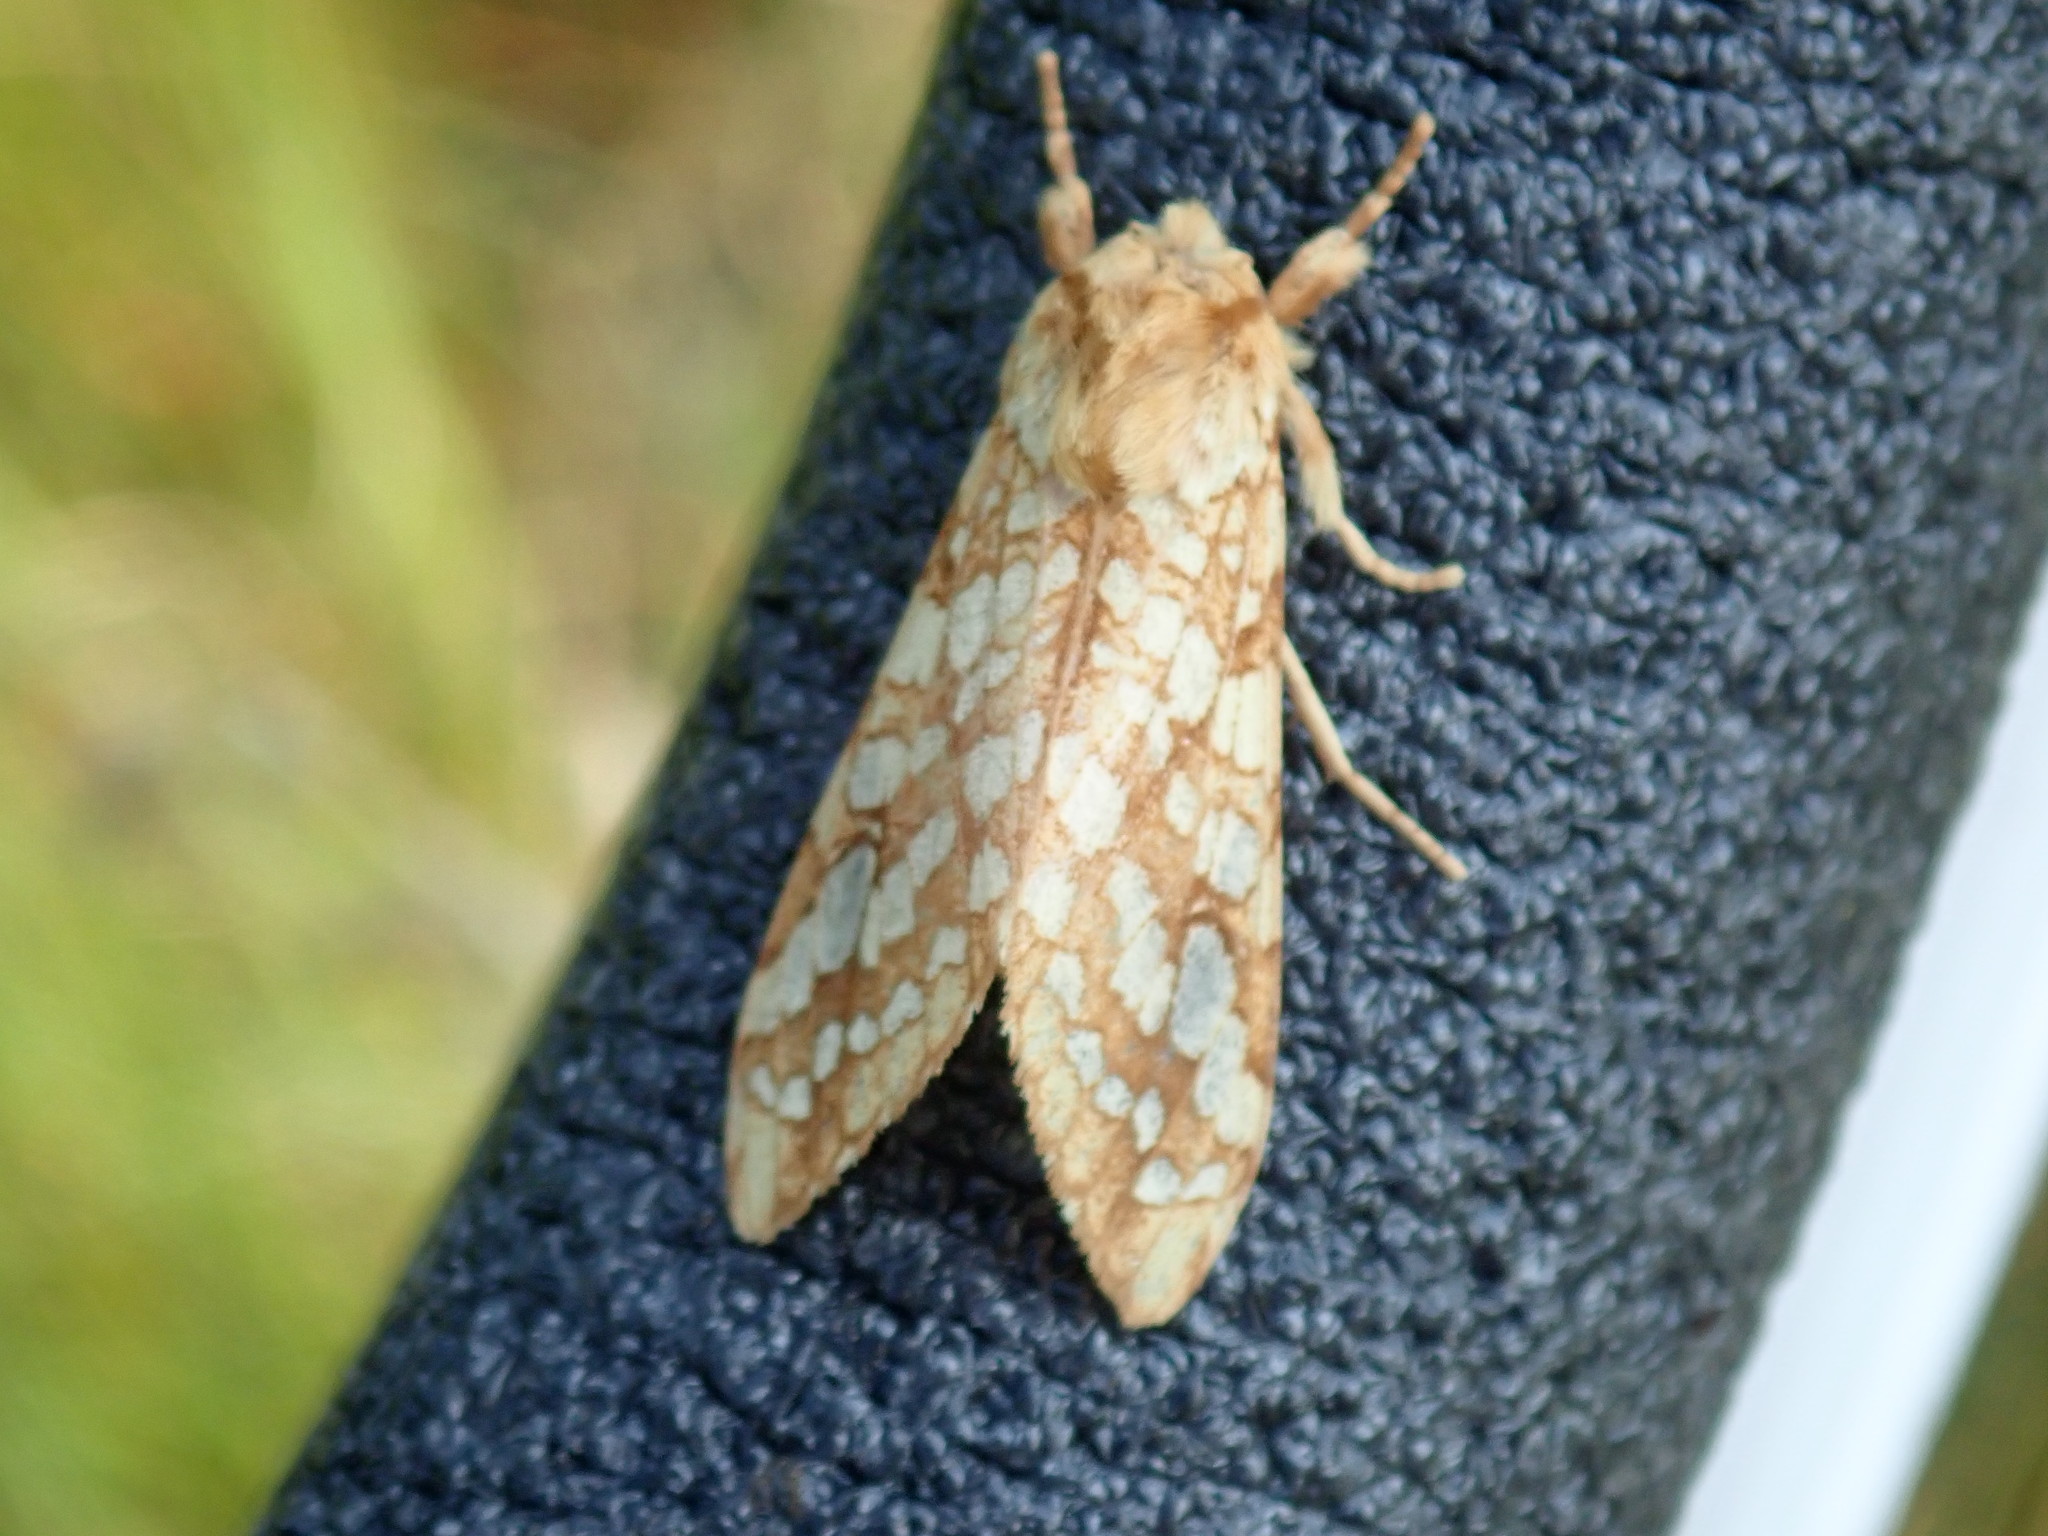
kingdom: Animalia
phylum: Arthropoda
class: Insecta
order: Lepidoptera
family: Erebidae
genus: Lophocampa
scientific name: Lophocampa caryae
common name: Hickory tussock moth
